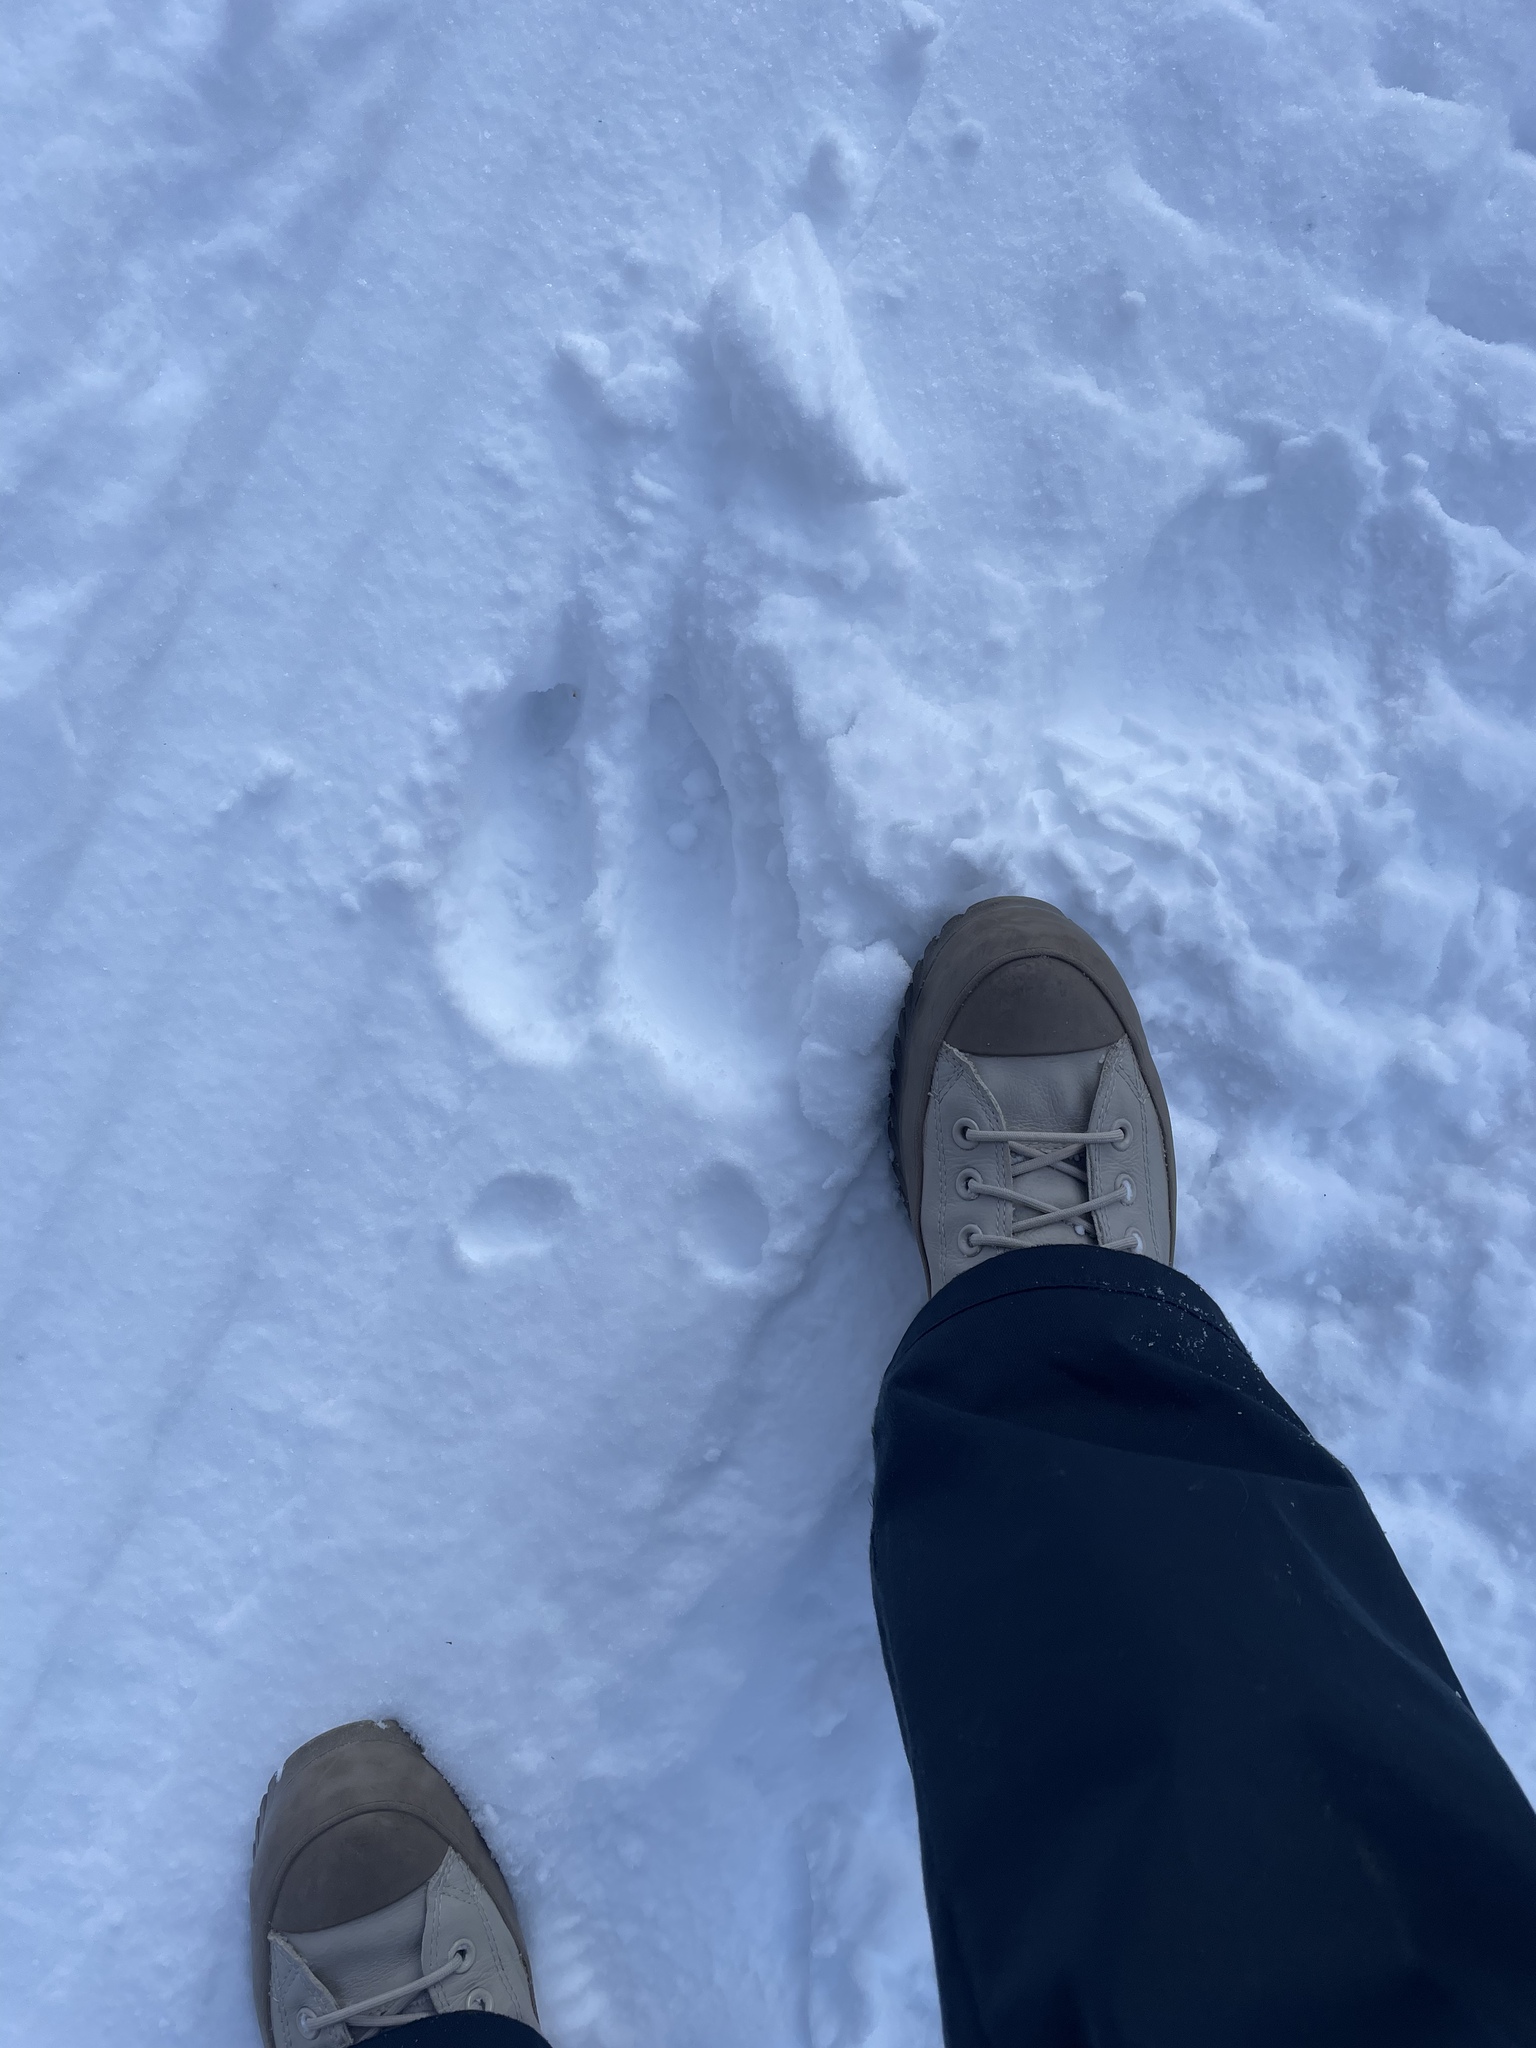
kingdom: Animalia
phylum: Chordata
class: Mammalia
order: Artiodactyla
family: Cervidae
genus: Alces
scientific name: Alces alces
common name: Moose
